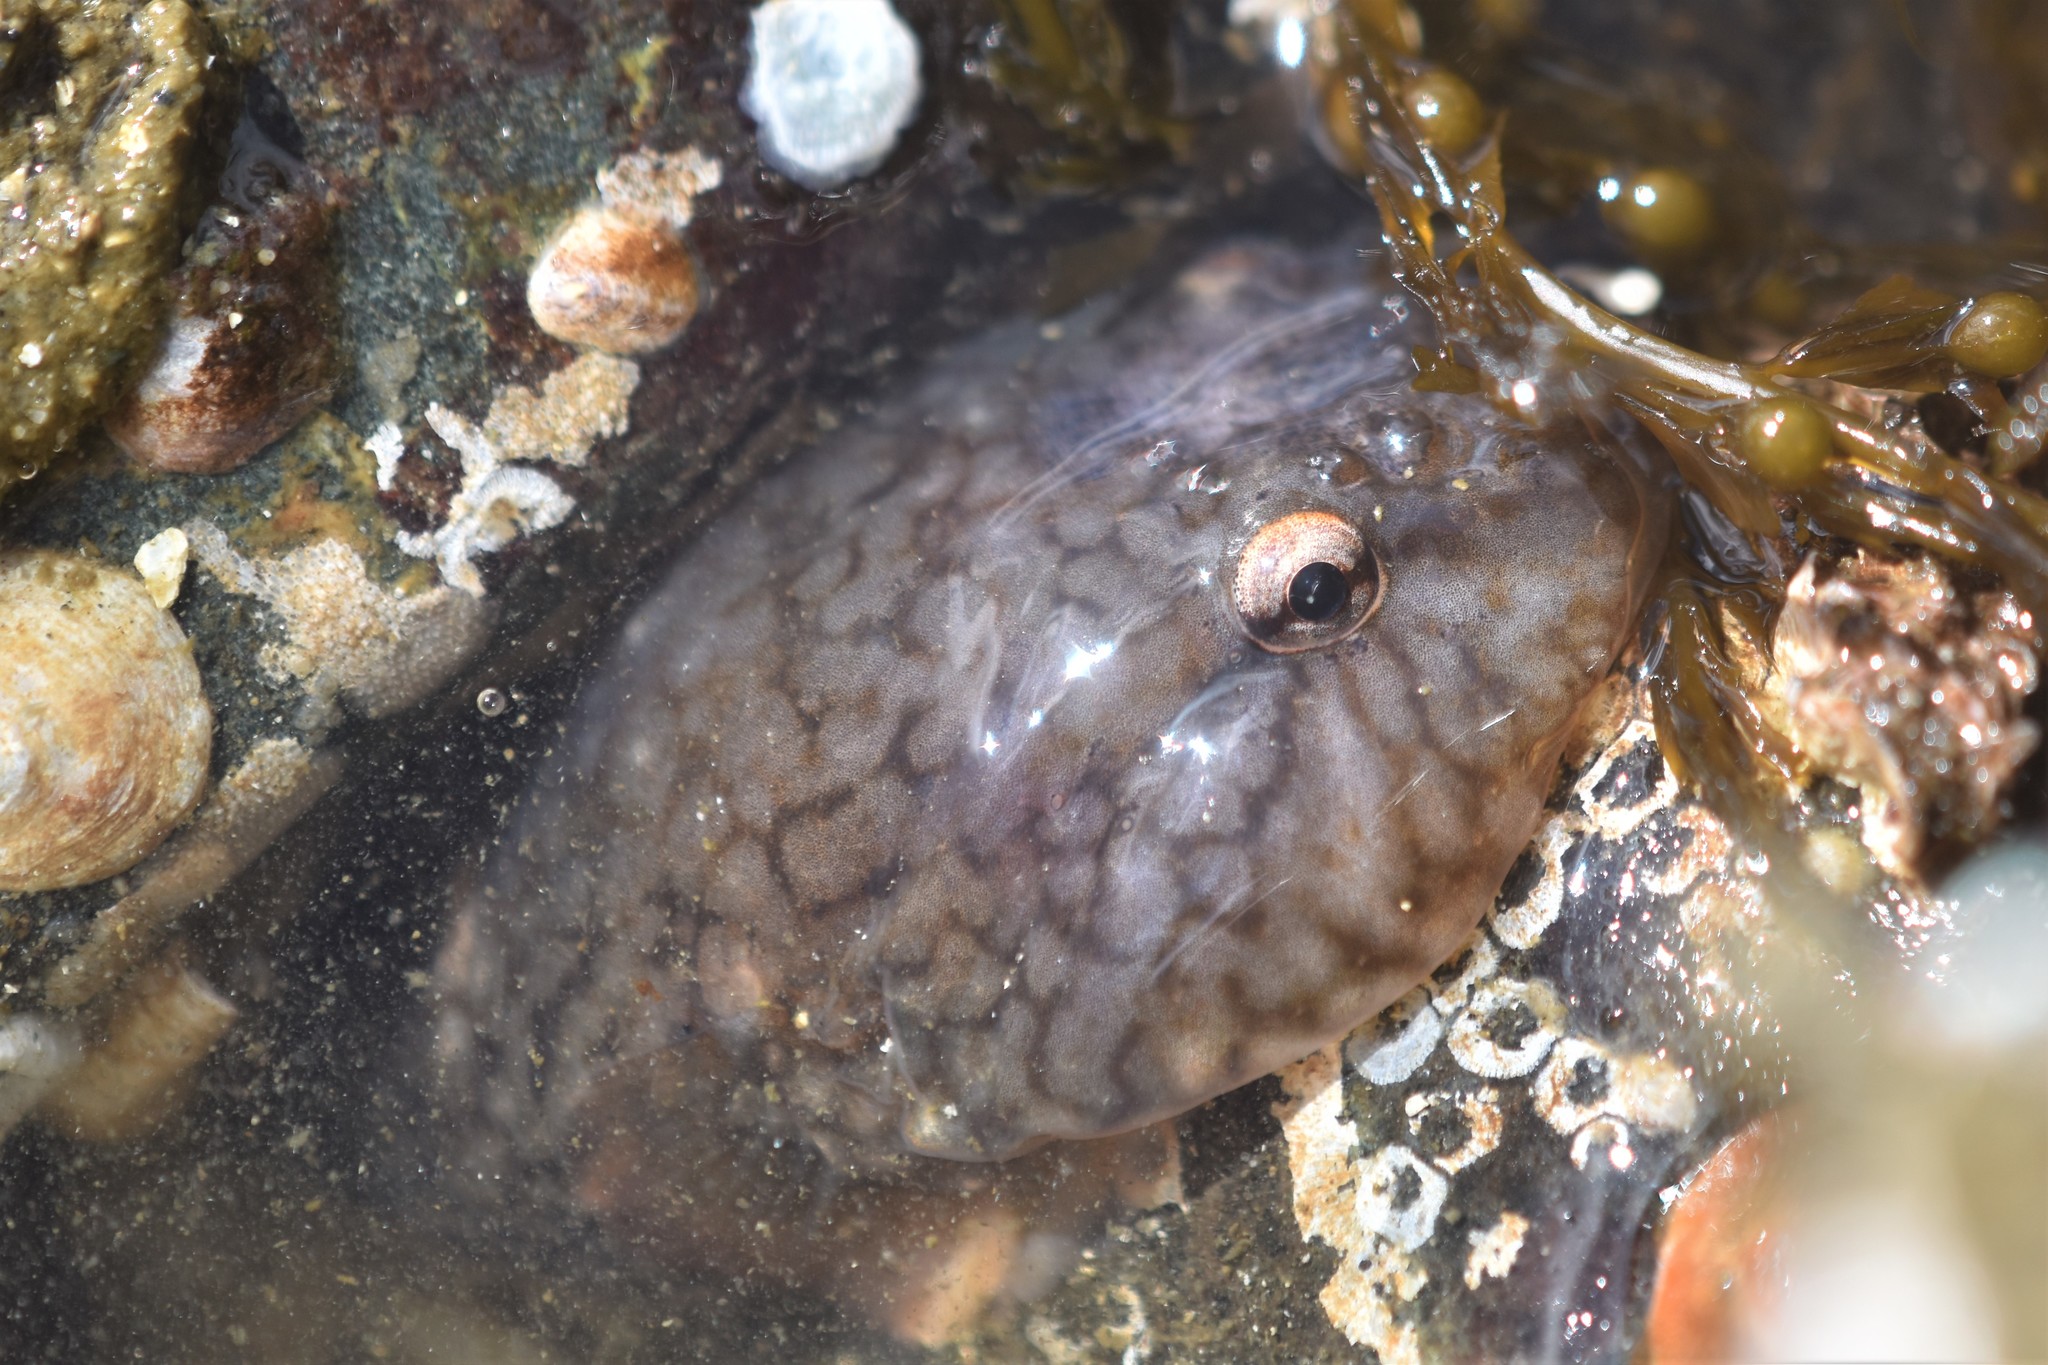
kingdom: Animalia
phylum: Chordata
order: Gobiesociformes
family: Gobiesocidae
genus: Gobiesox
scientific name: Gobiesox maeandricus
